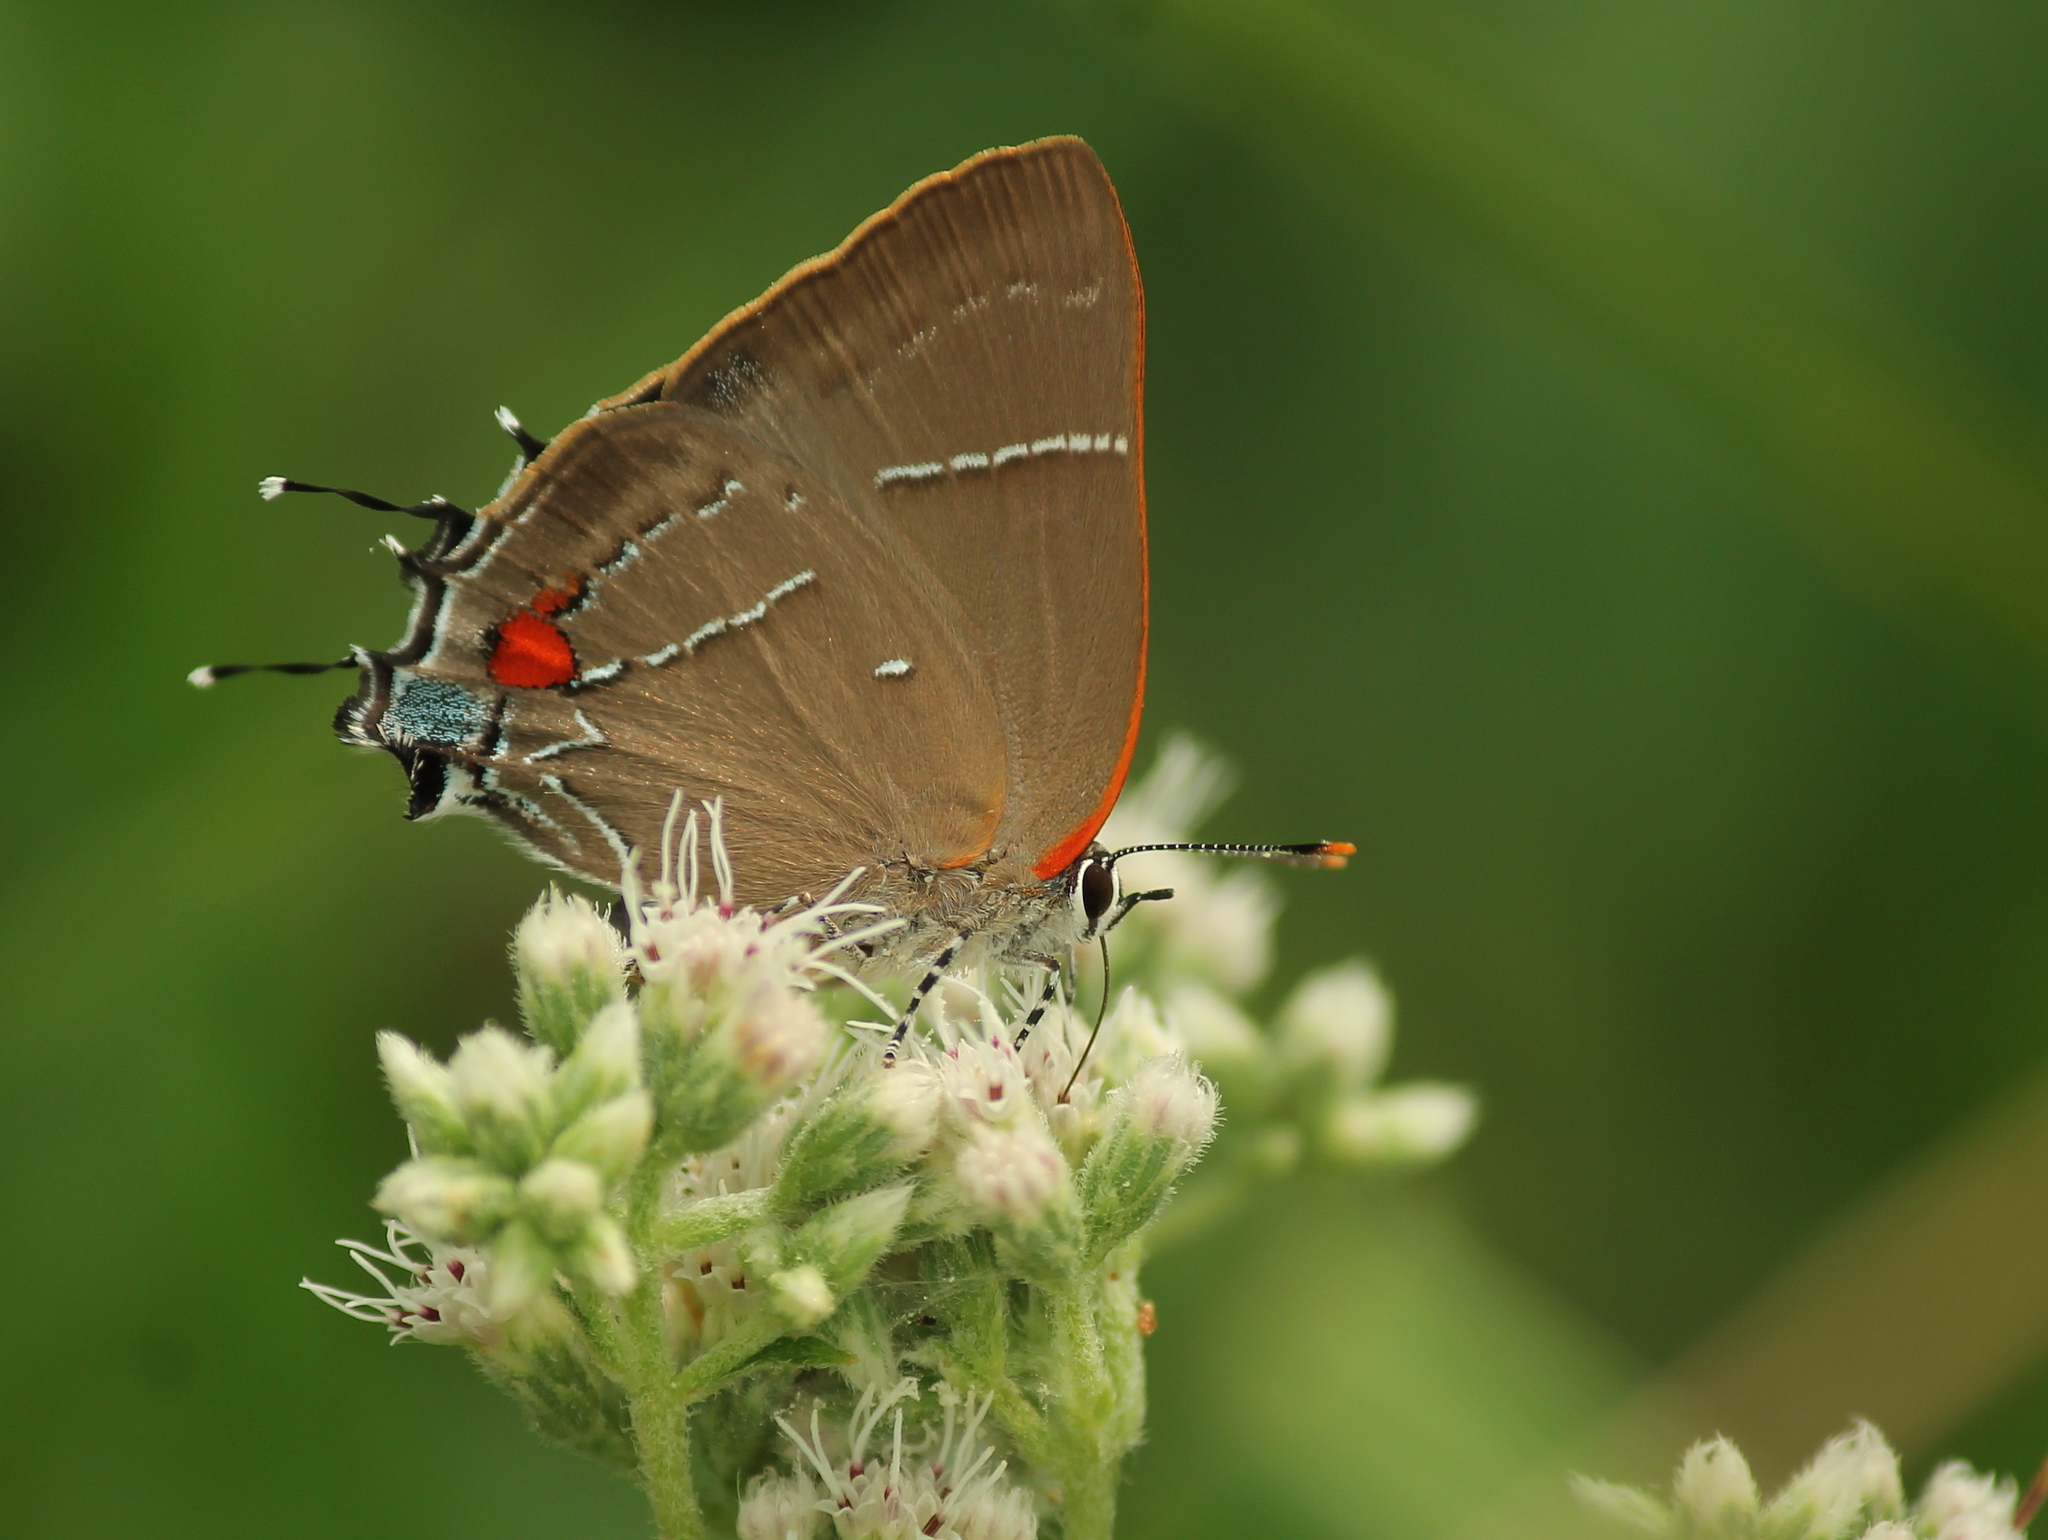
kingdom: Animalia
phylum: Arthropoda
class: Insecta
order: Lepidoptera
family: Lycaenidae
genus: Parrhasius
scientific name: Parrhasius m-album
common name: White m hairstreak
